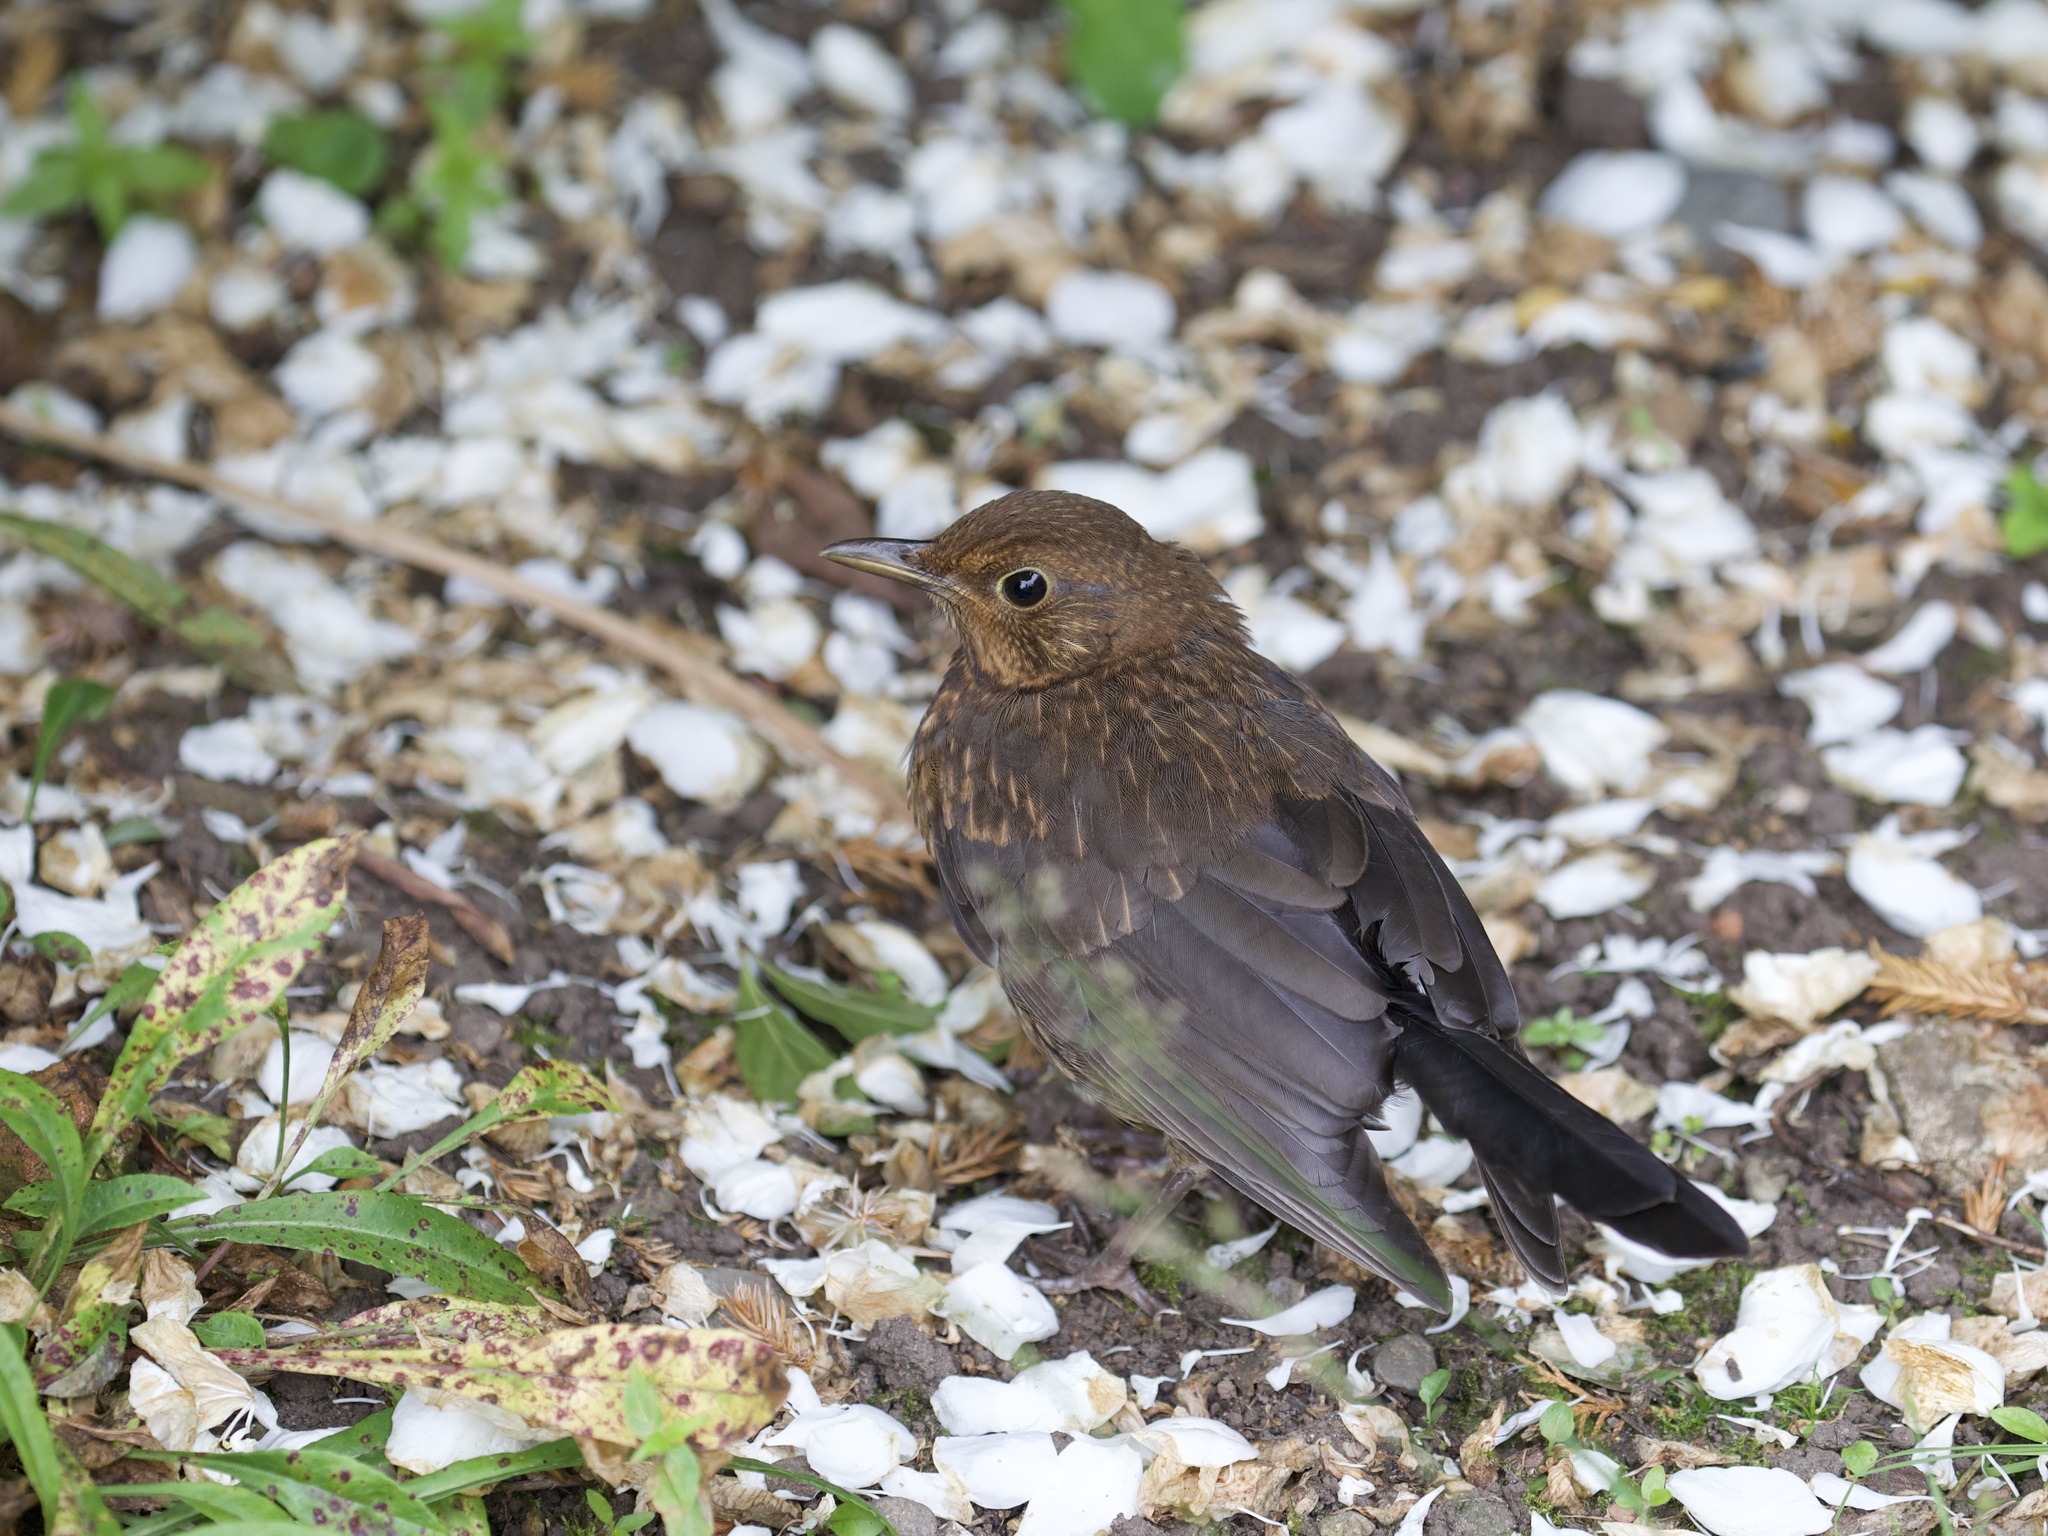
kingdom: Animalia
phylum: Chordata
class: Aves
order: Passeriformes
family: Turdidae
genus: Turdus
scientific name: Turdus merula
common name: Common blackbird
